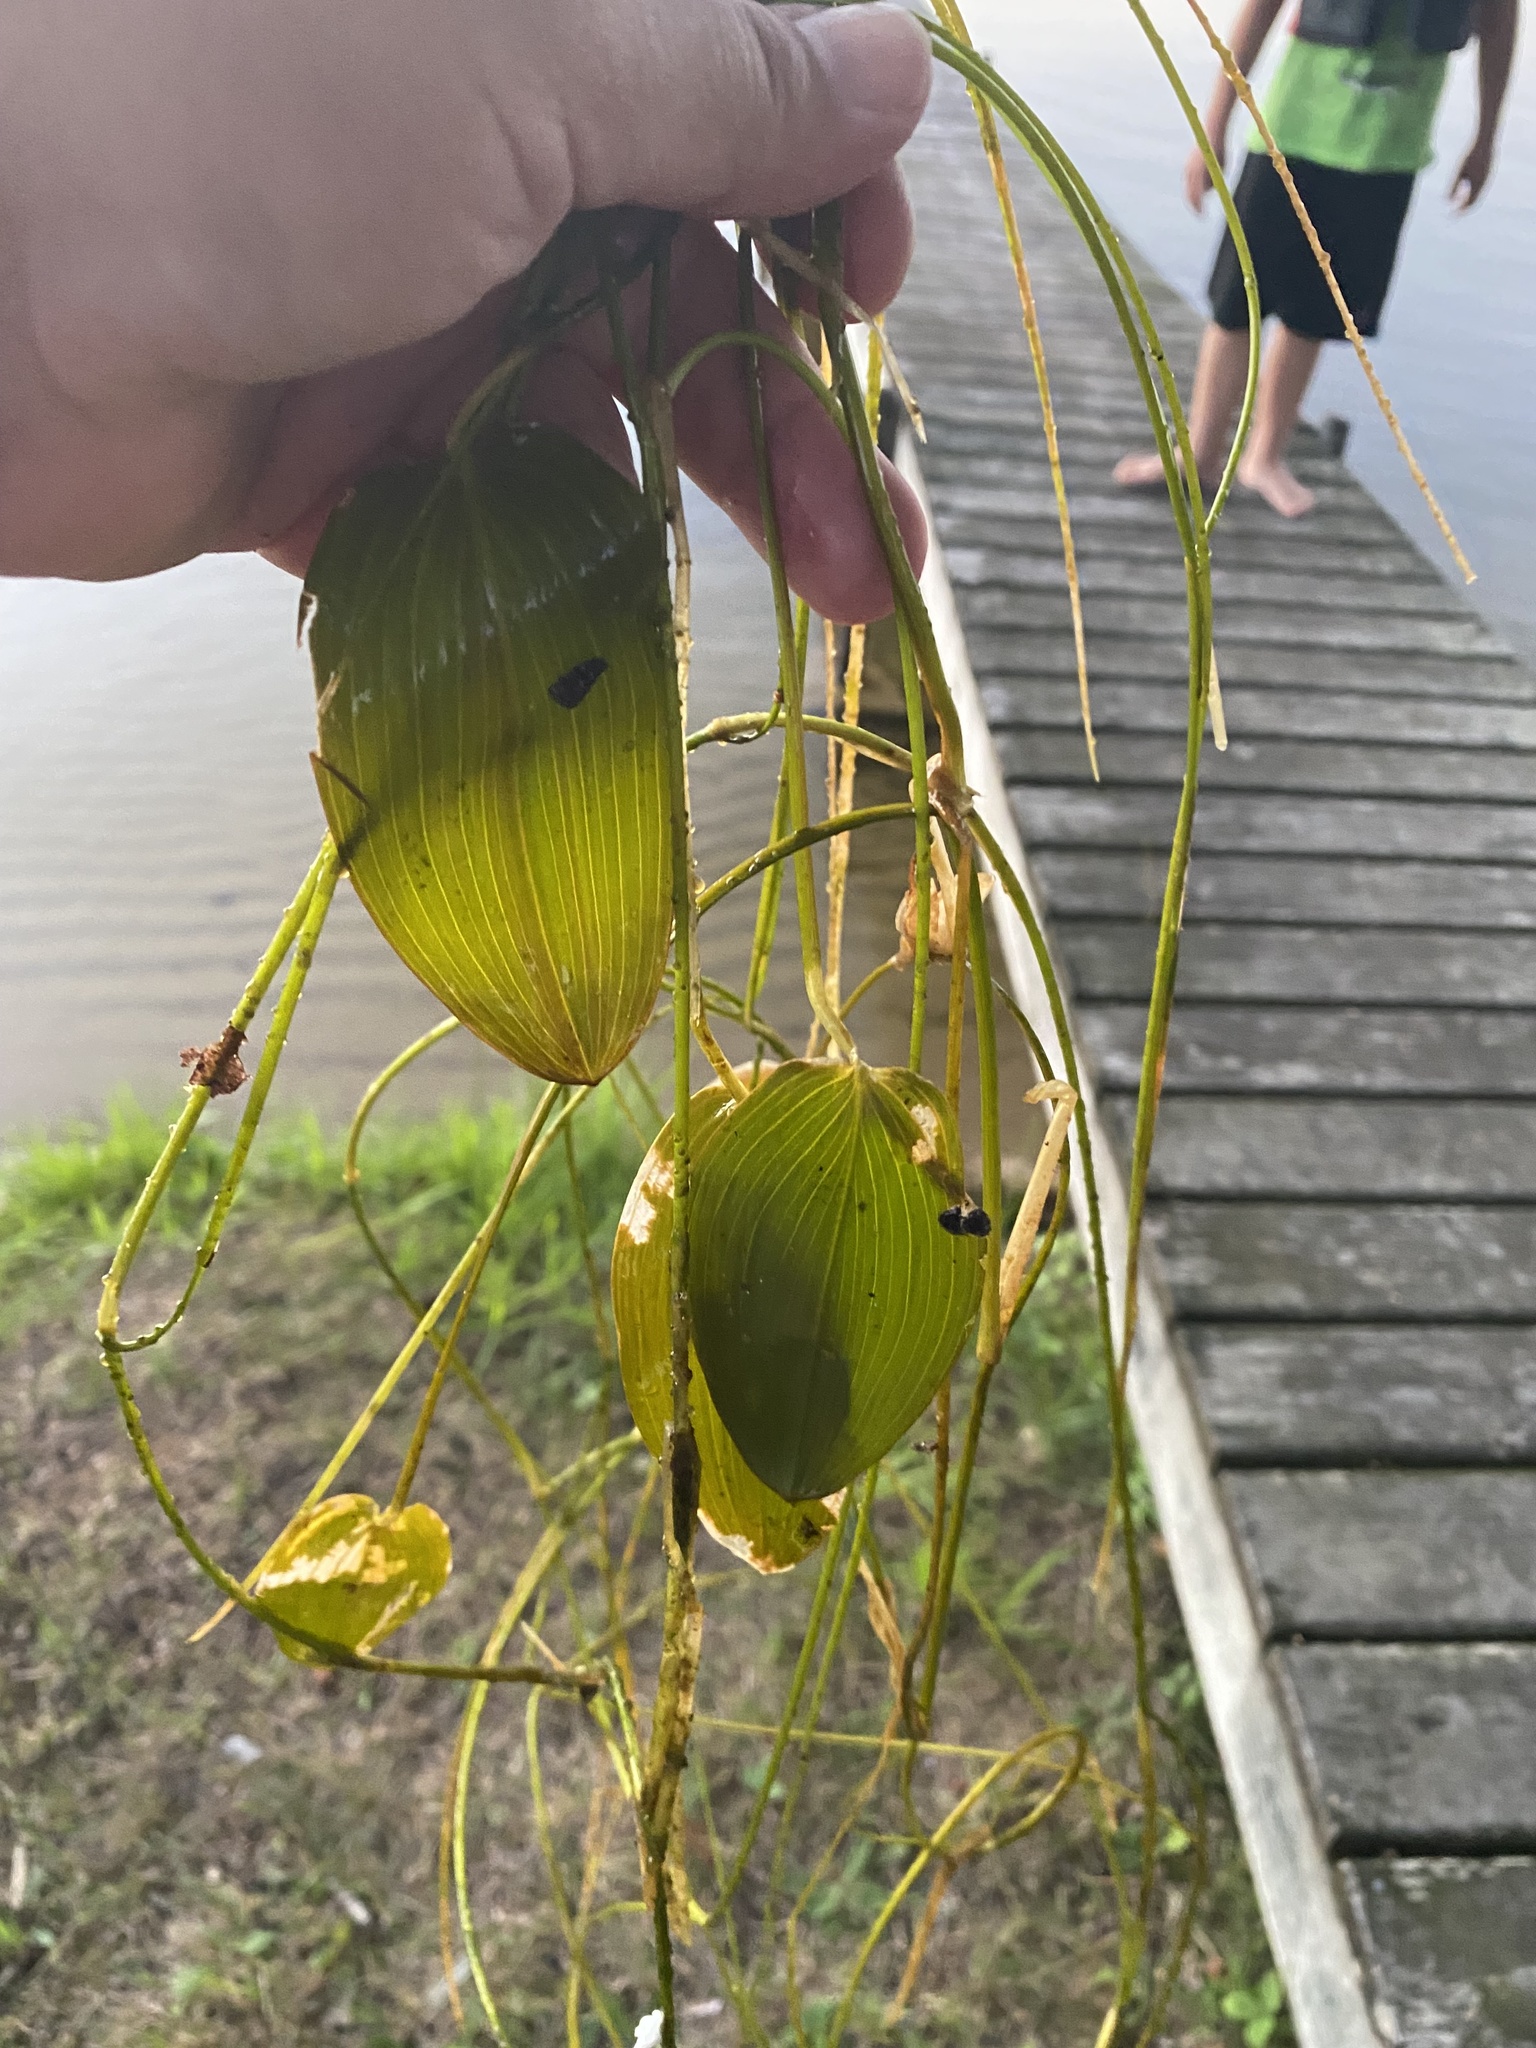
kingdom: Plantae
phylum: Tracheophyta
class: Liliopsida
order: Alismatales
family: Potamogetonaceae
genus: Potamogeton
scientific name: Potamogeton natans
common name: Broad-leaved pondweed
